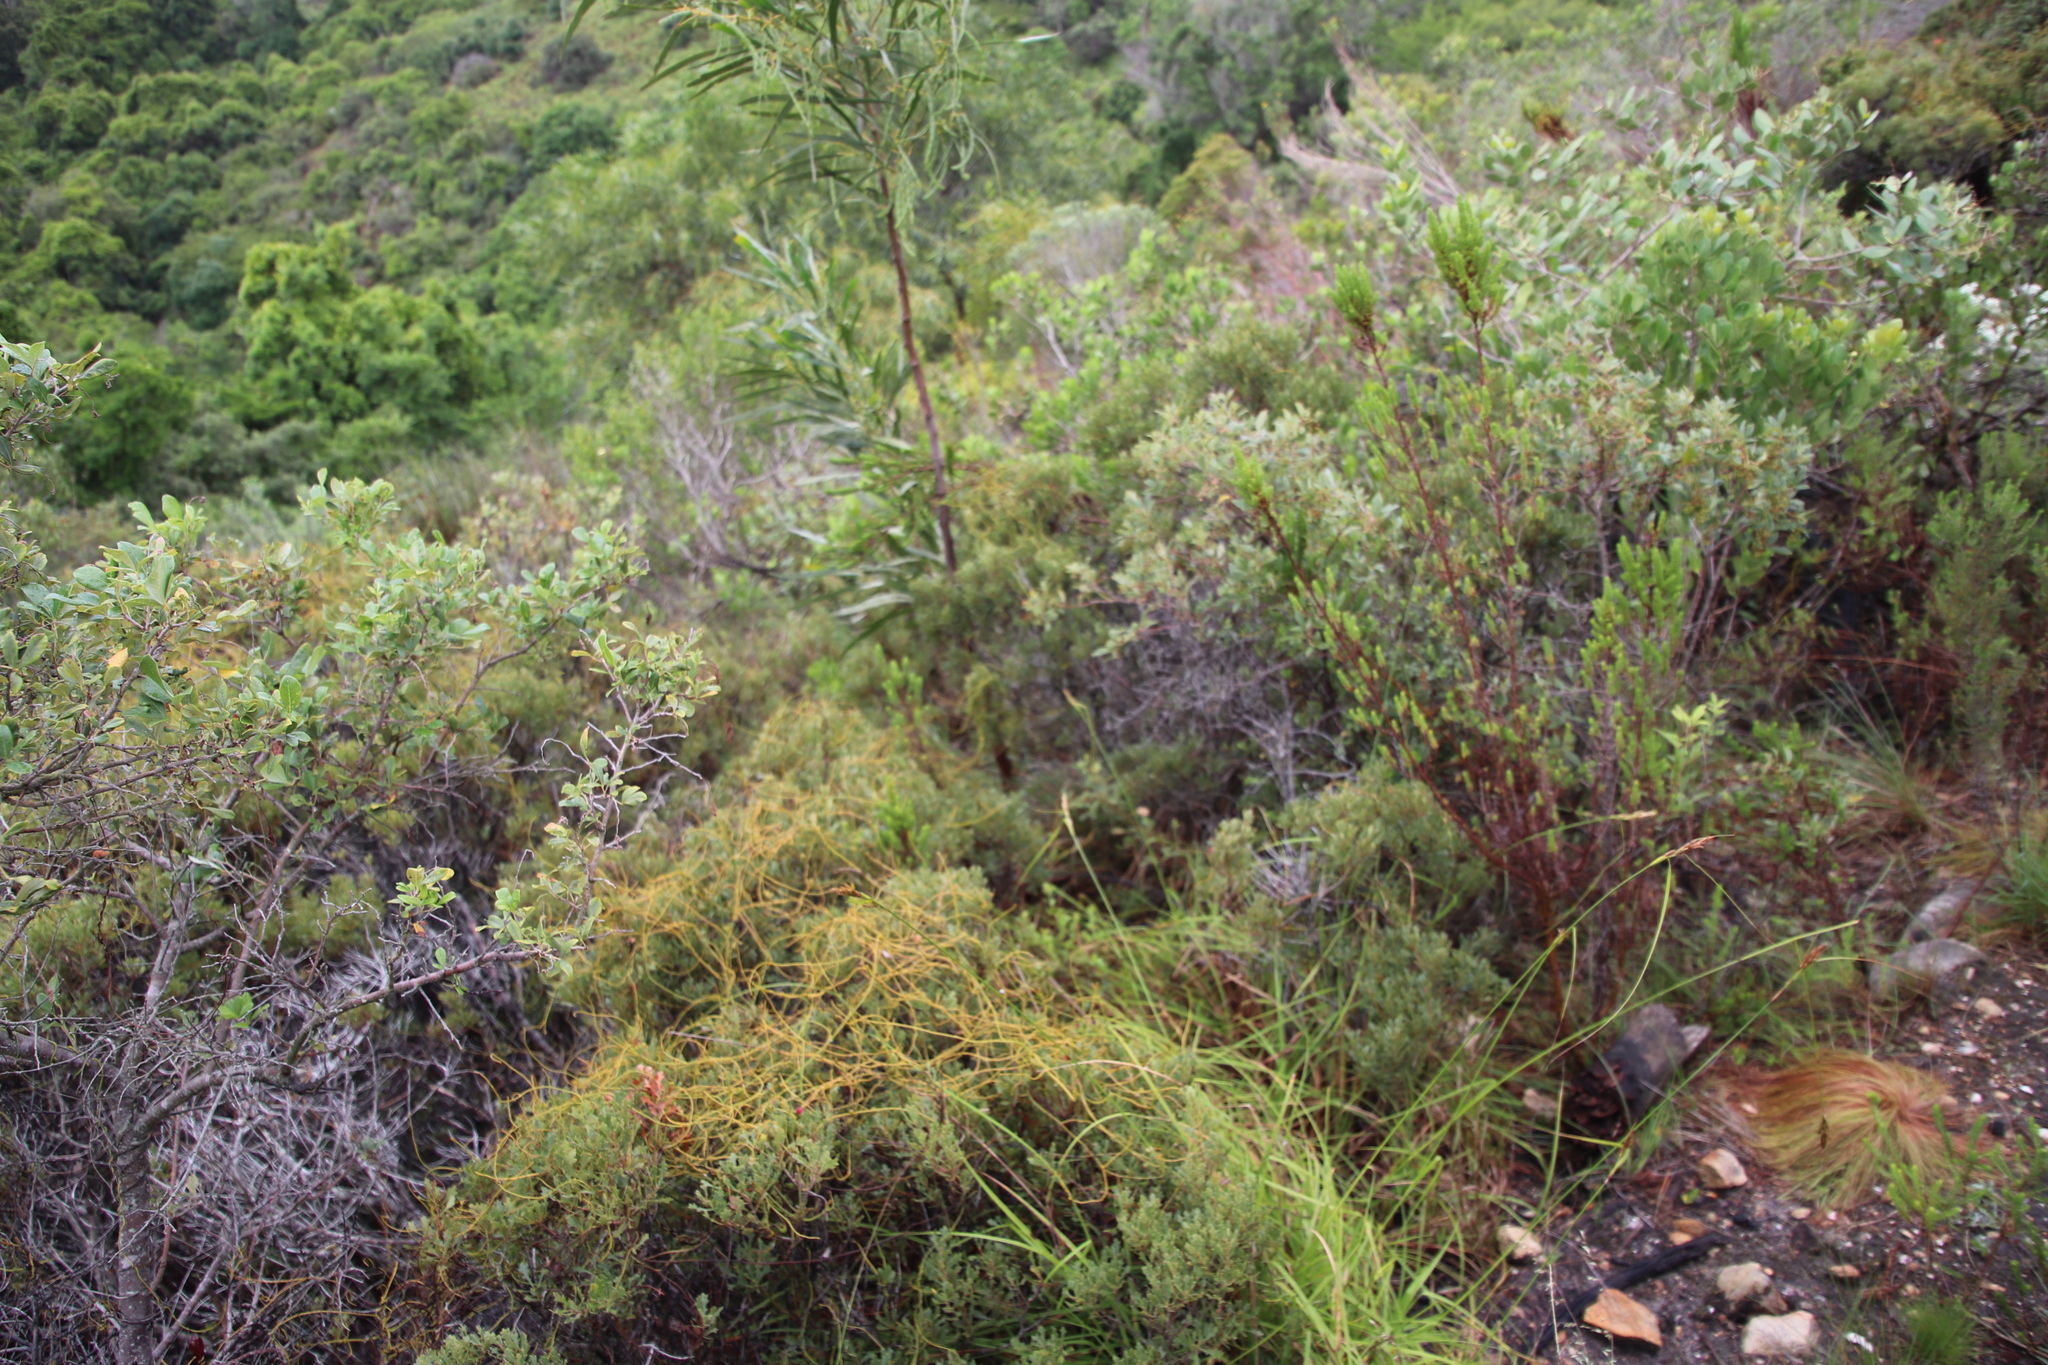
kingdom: Plantae
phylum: Tracheophyta
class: Magnoliopsida
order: Laurales
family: Lauraceae
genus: Cassytha
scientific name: Cassytha ciliolata
